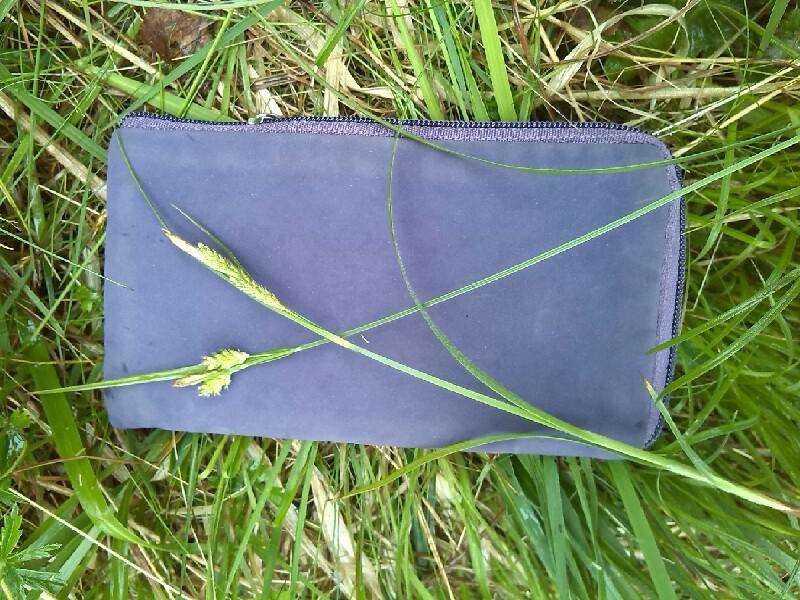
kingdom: Plantae
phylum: Tracheophyta
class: Liliopsida
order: Poales
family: Cyperaceae
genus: Carex
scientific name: Carex pallescens
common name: Pale sedge
